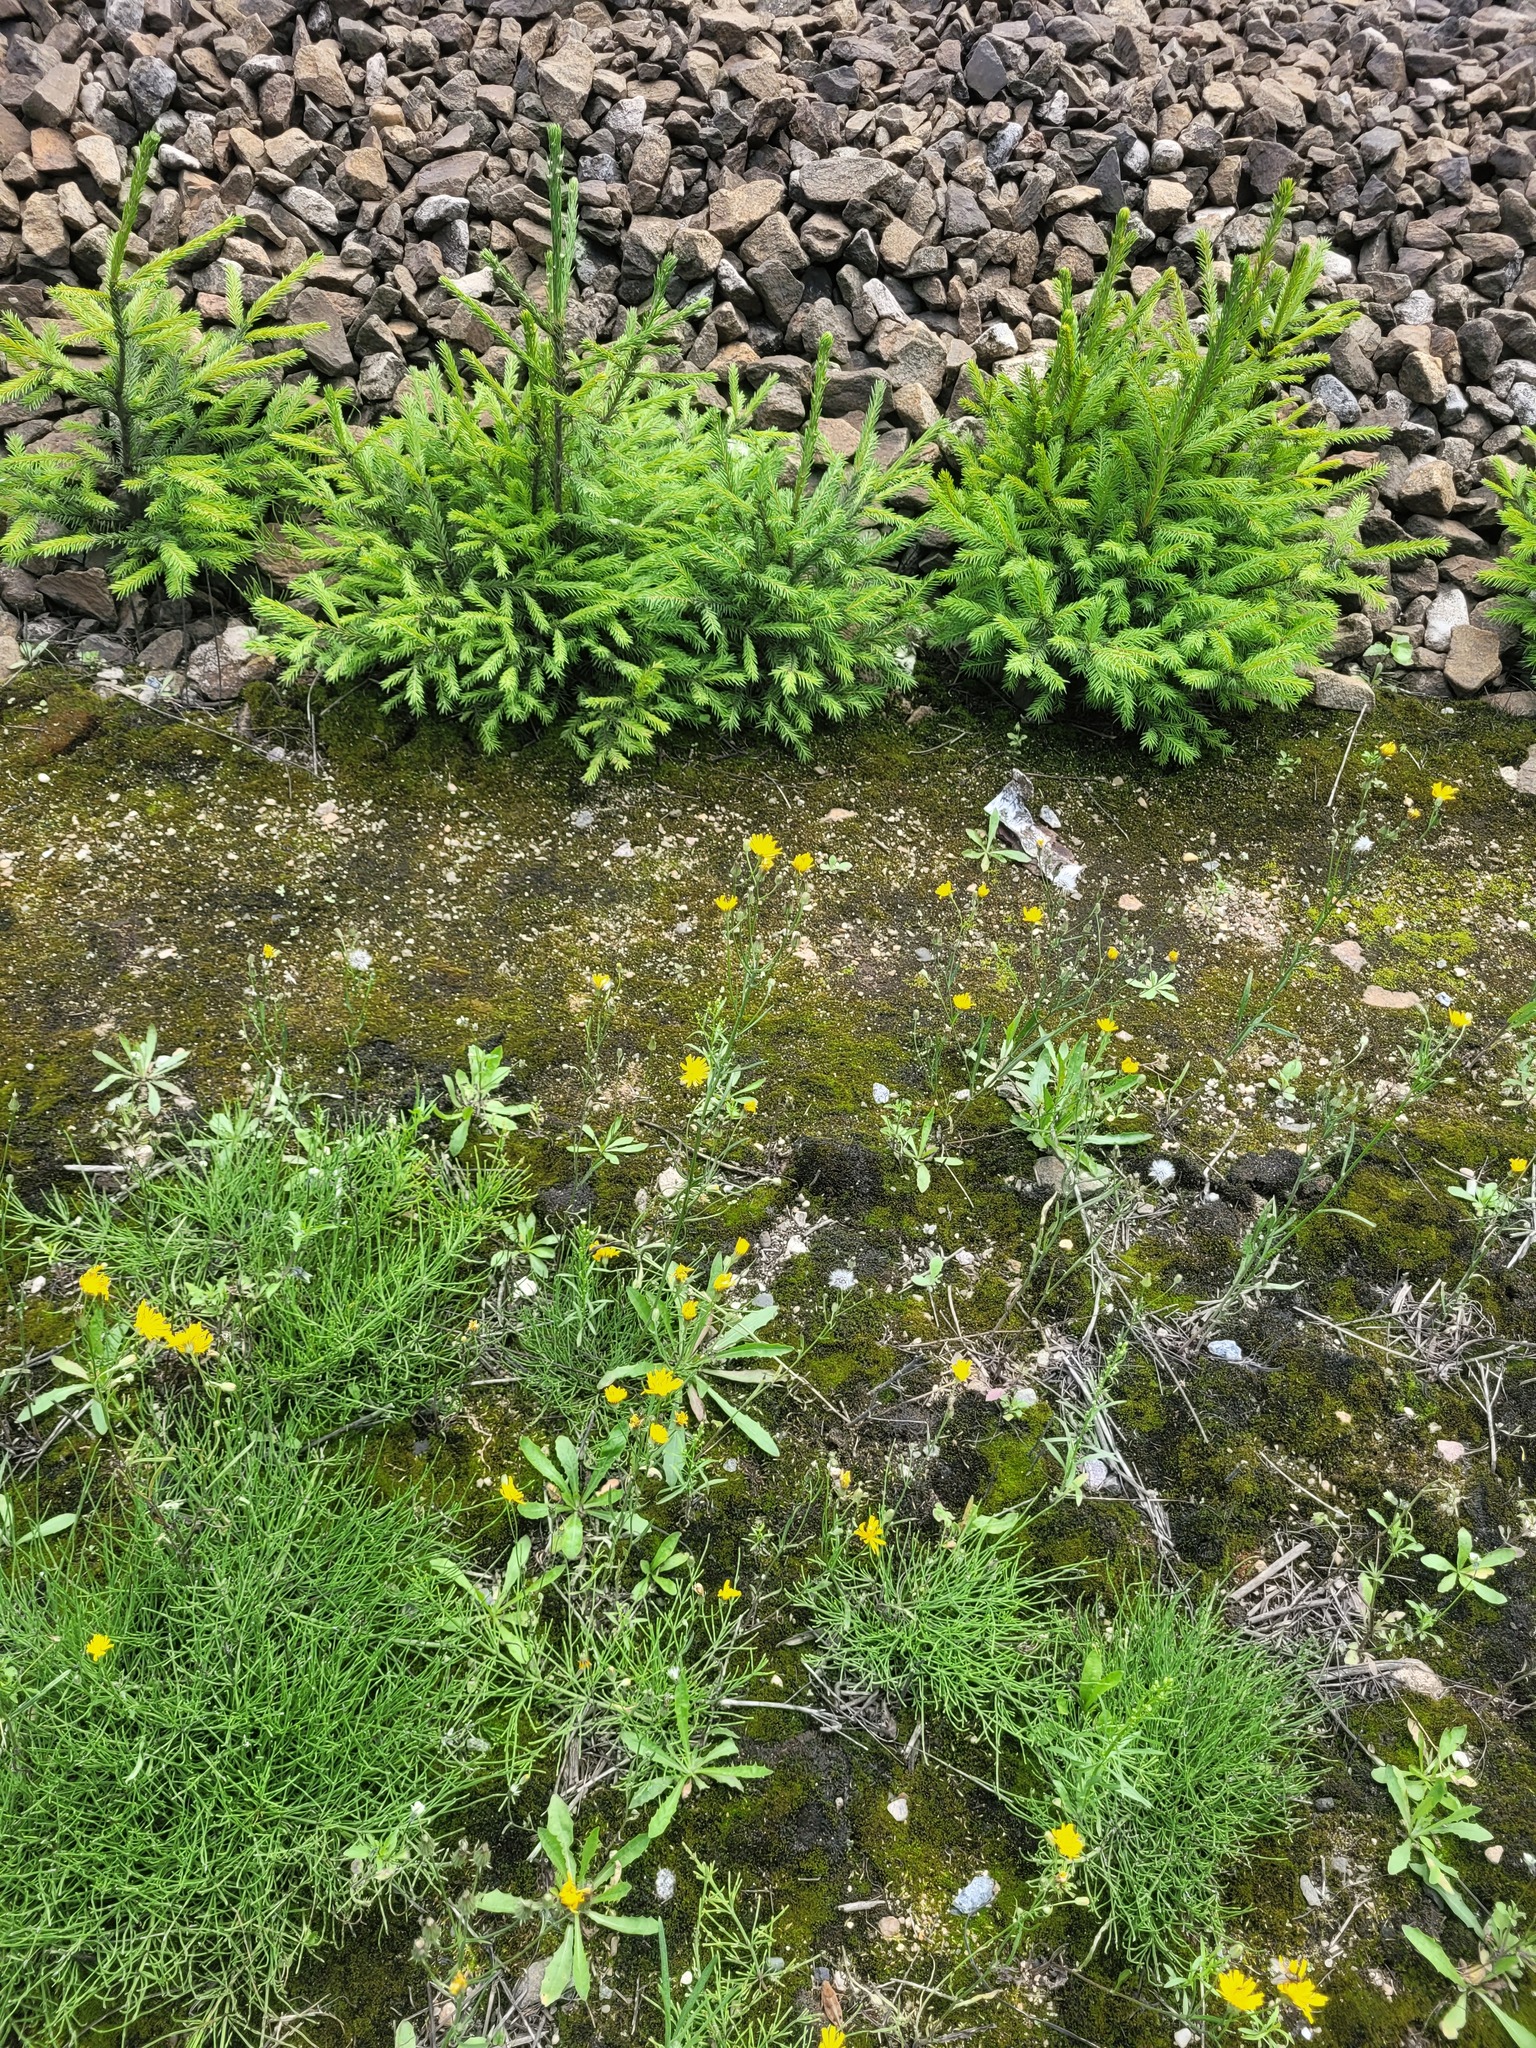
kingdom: Plantae
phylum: Tracheophyta
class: Magnoliopsida
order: Asterales
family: Asteraceae
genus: Crepis
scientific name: Crepis tectorum
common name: Narrow-leaved hawk's-beard
